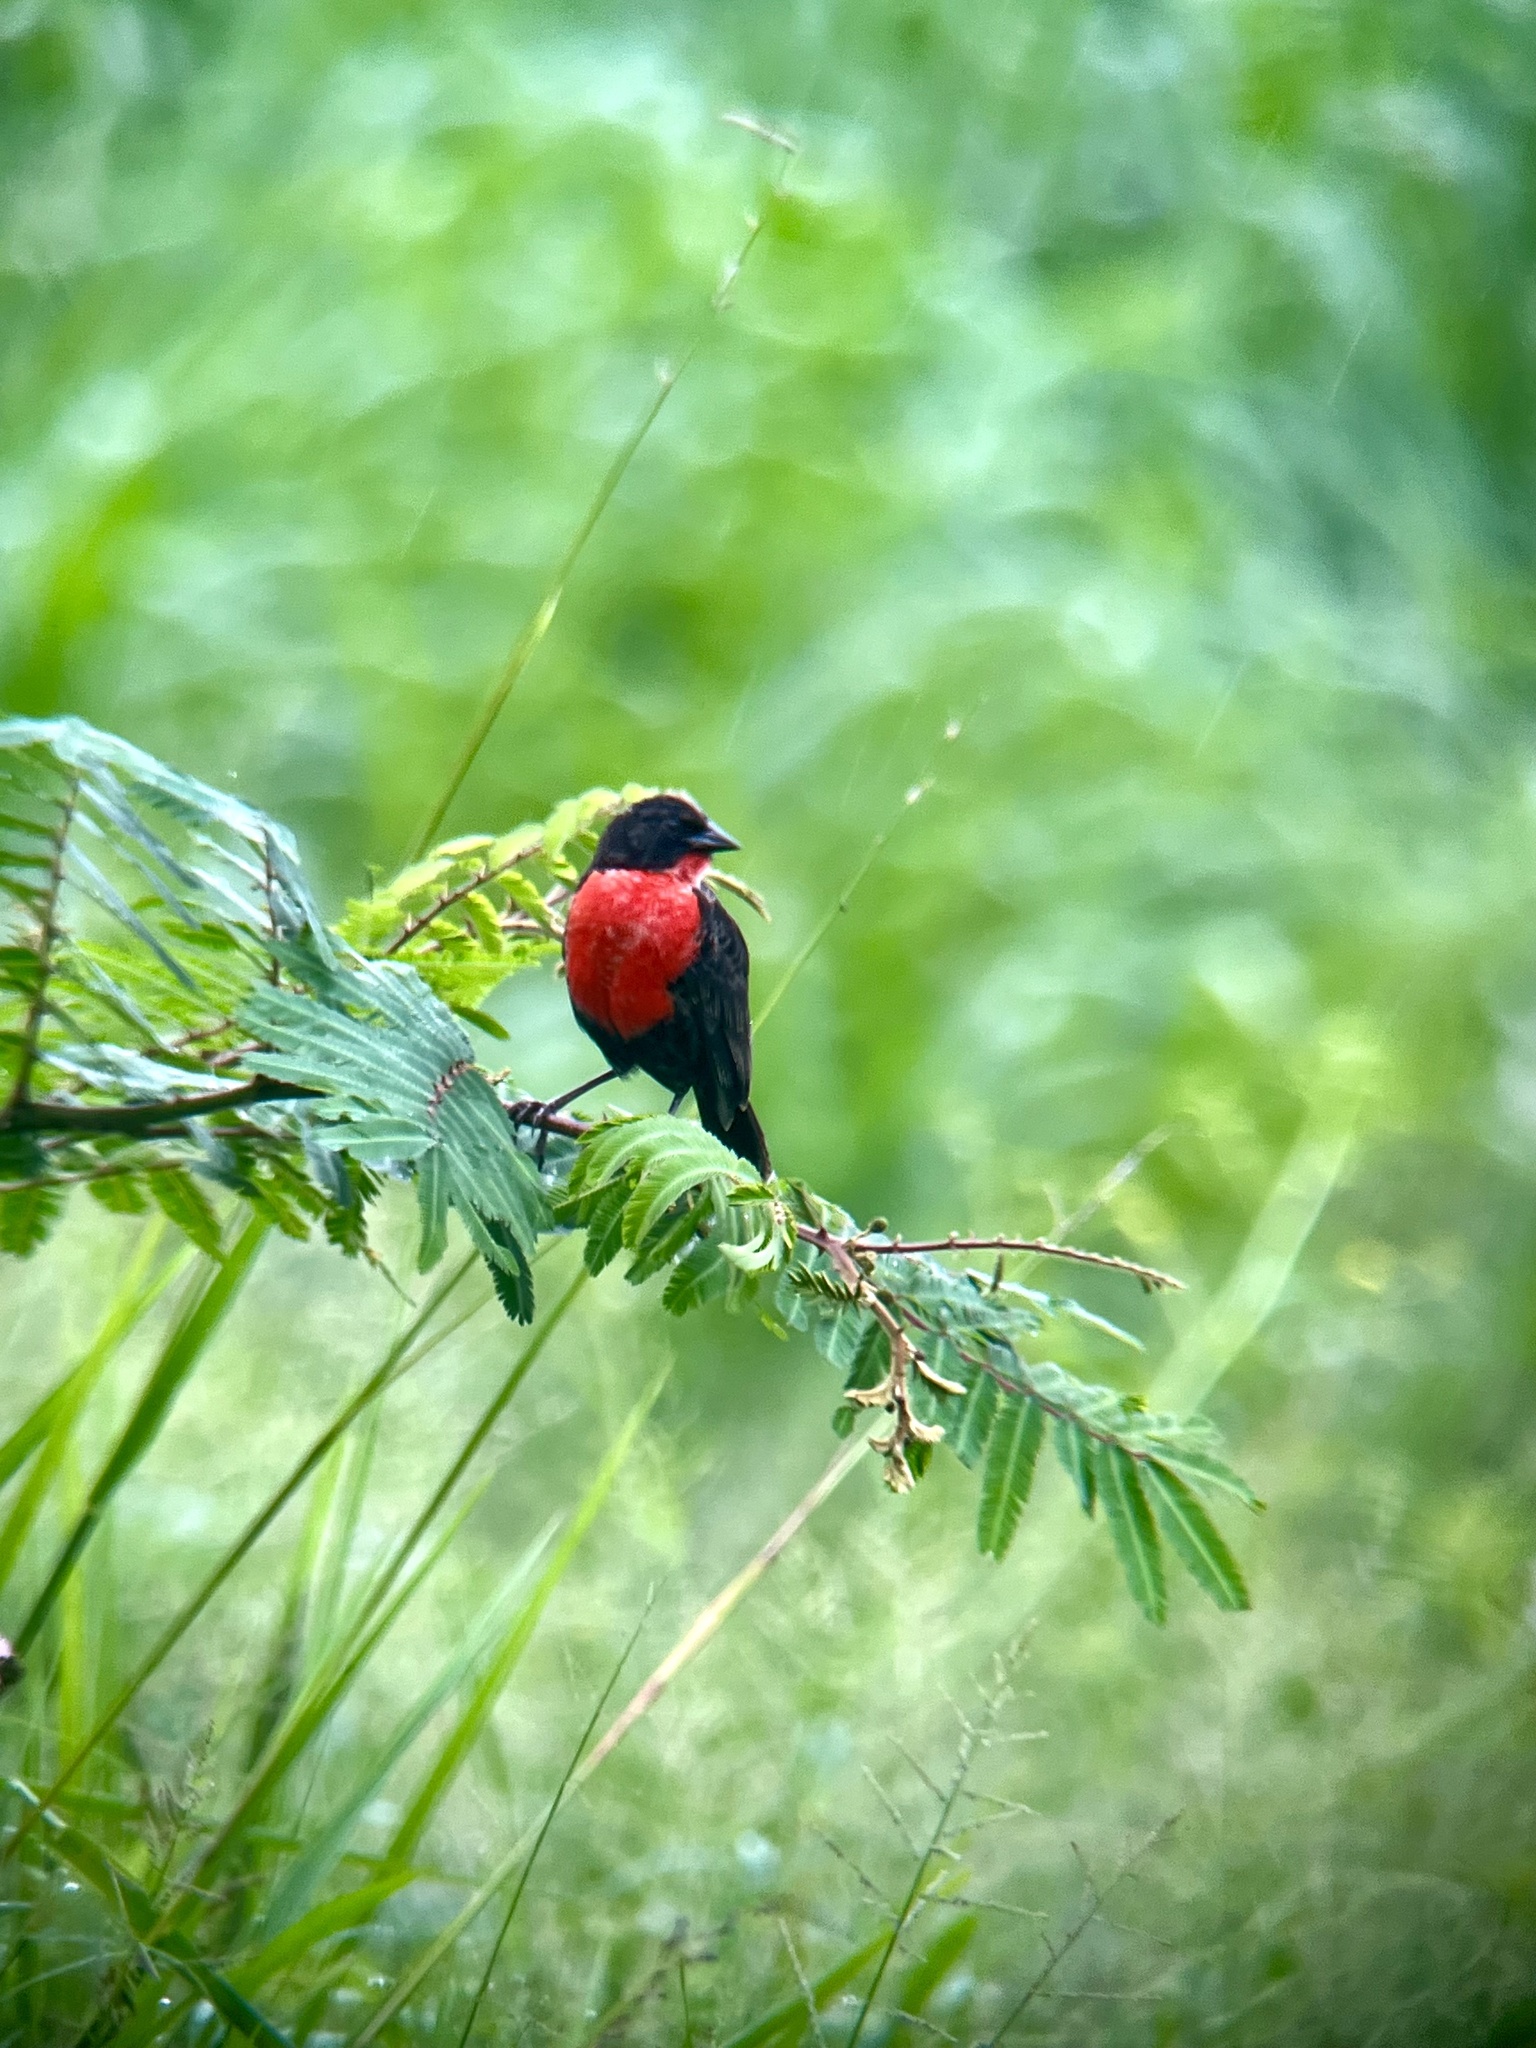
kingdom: Animalia
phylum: Chordata
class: Aves
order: Passeriformes
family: Icteridae
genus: Sturnella
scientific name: Sturnella militaris
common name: Red-breasted blackbird
